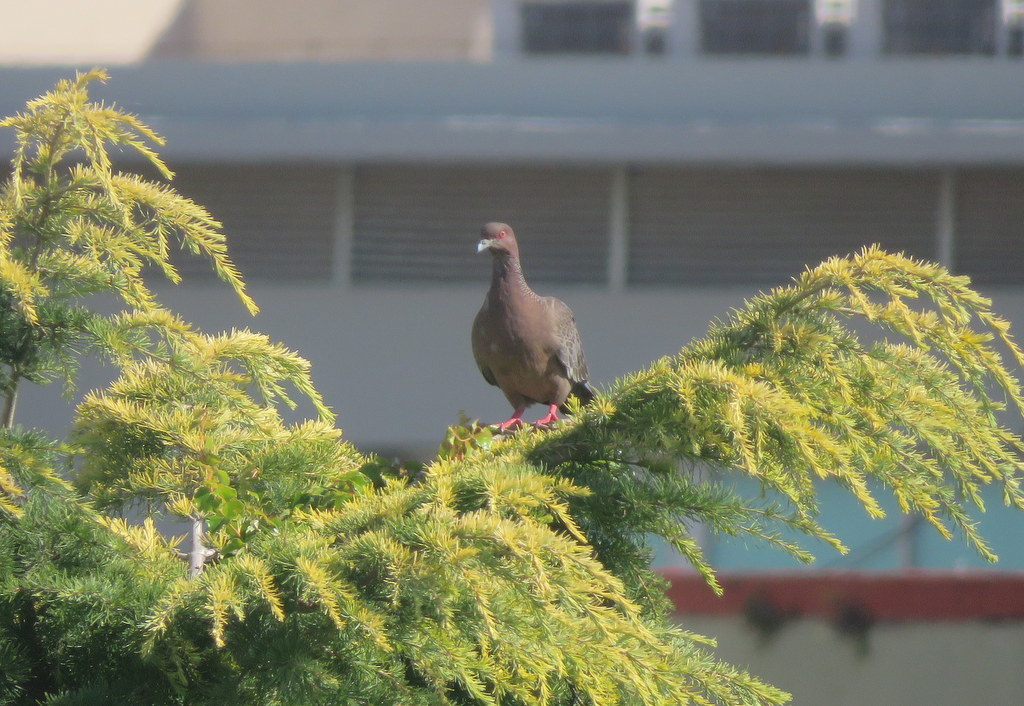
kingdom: Animalia
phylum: Chordata
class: Aves
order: Columbiformes
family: Columbidae
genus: Patagioenas
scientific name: Patagioenas picazuro
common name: Picazuro pigeon
